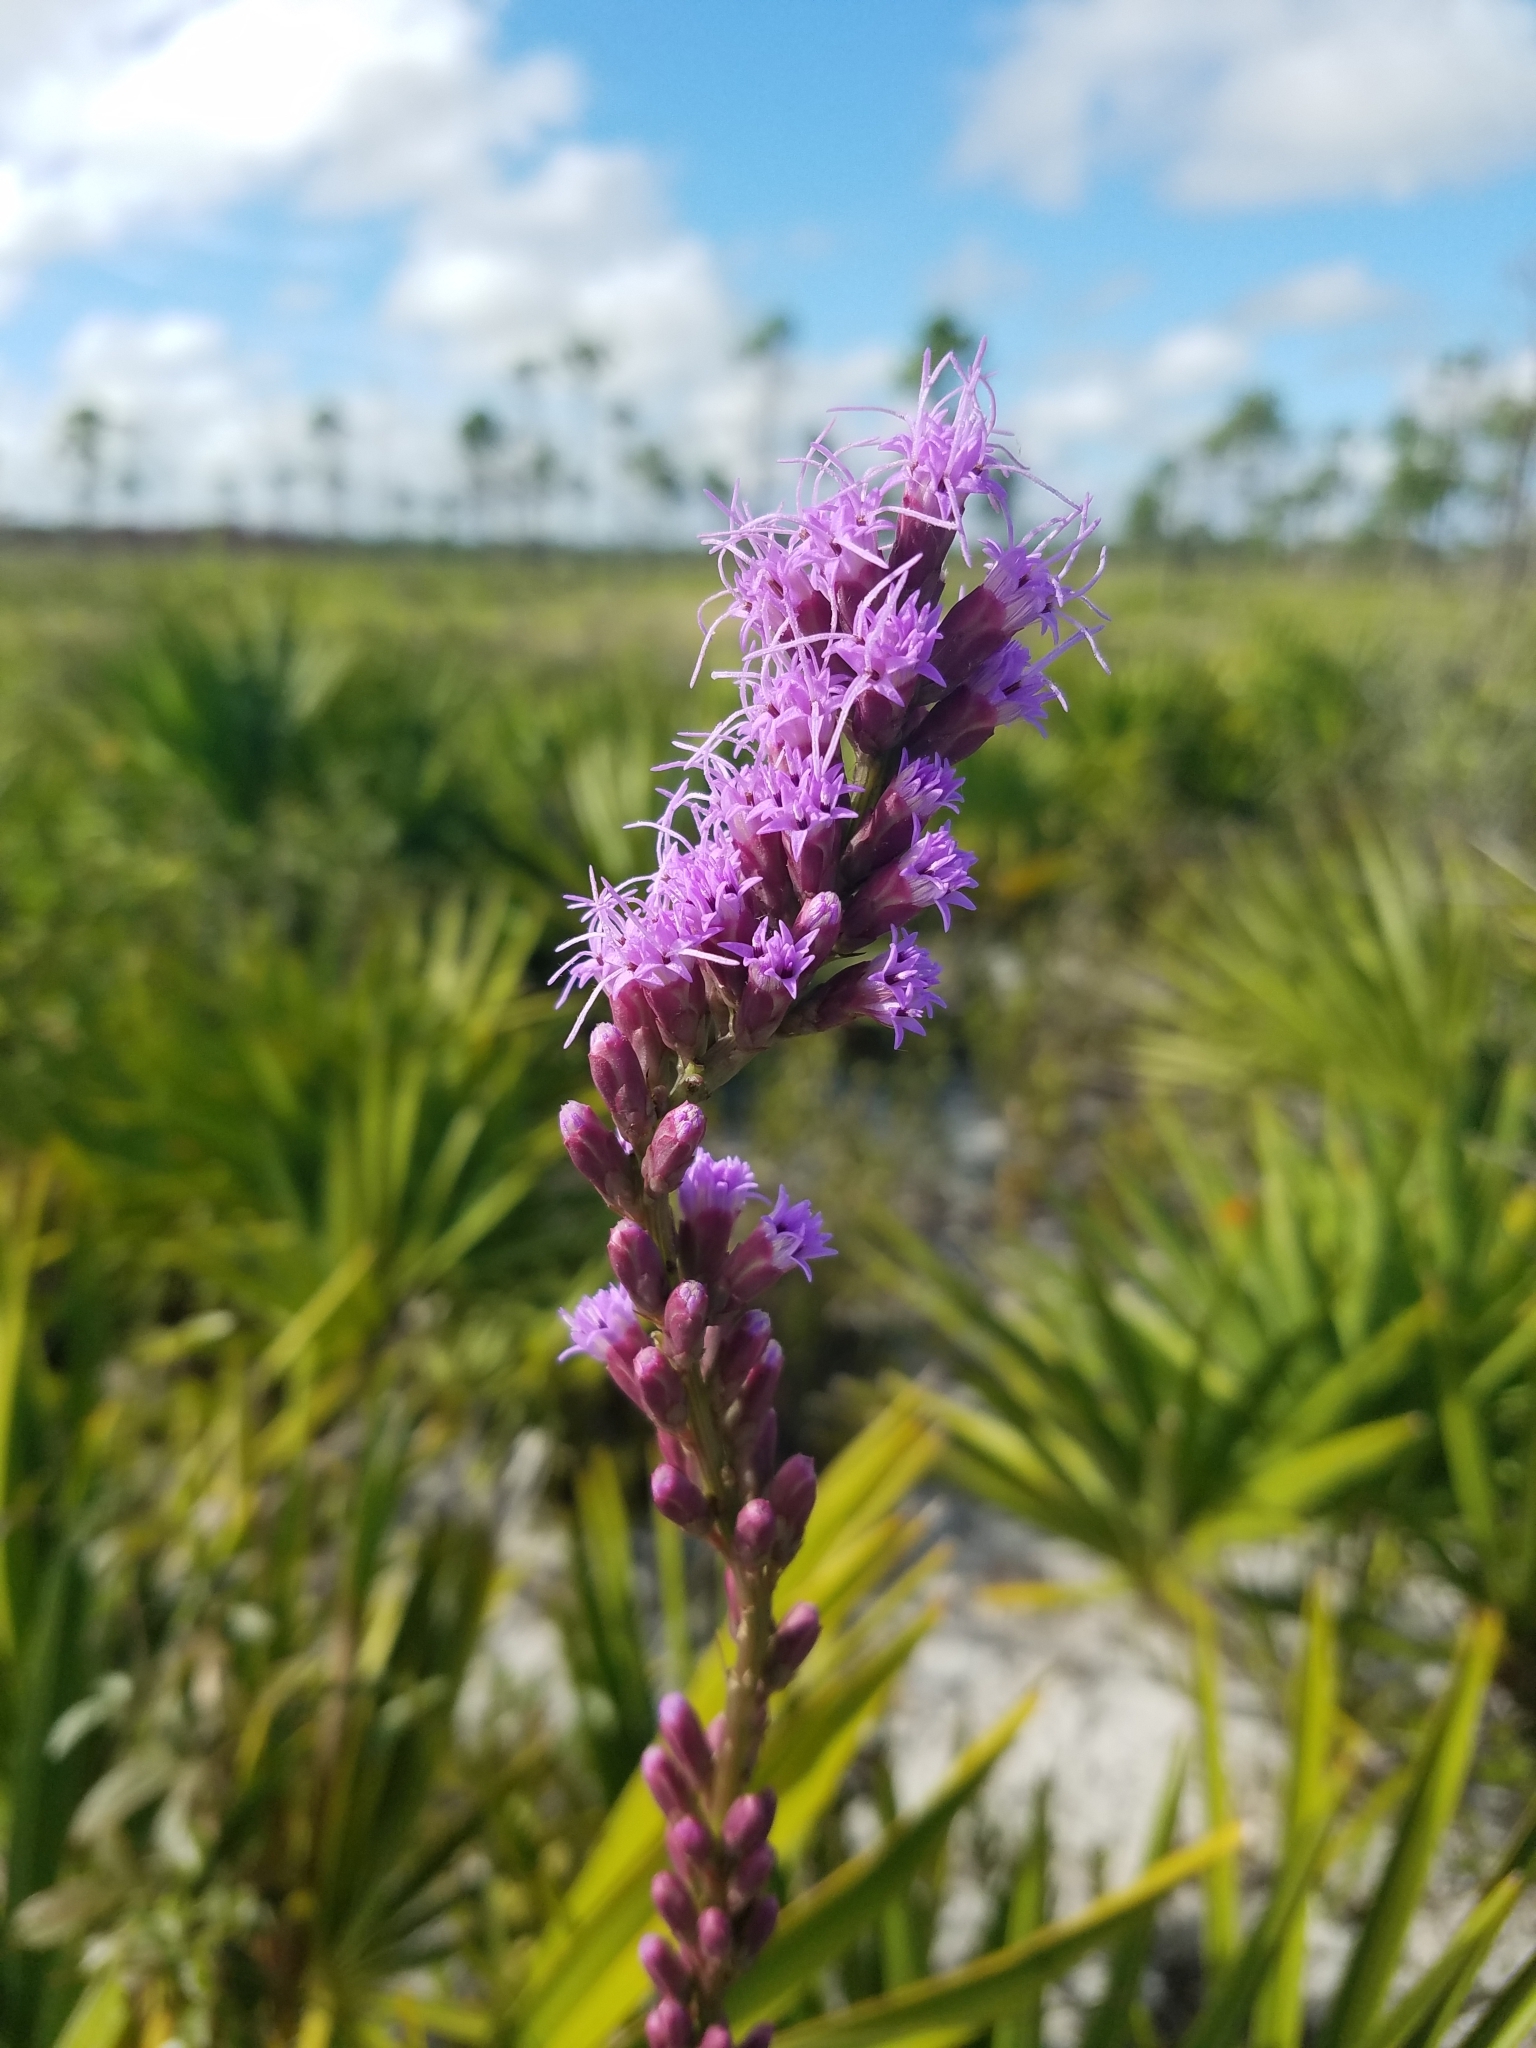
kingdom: Plantae
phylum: Tracheophyta
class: Magnoliopsida
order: Asterales
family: Asteraceae
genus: Liatris
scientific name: Liatris laevigata
